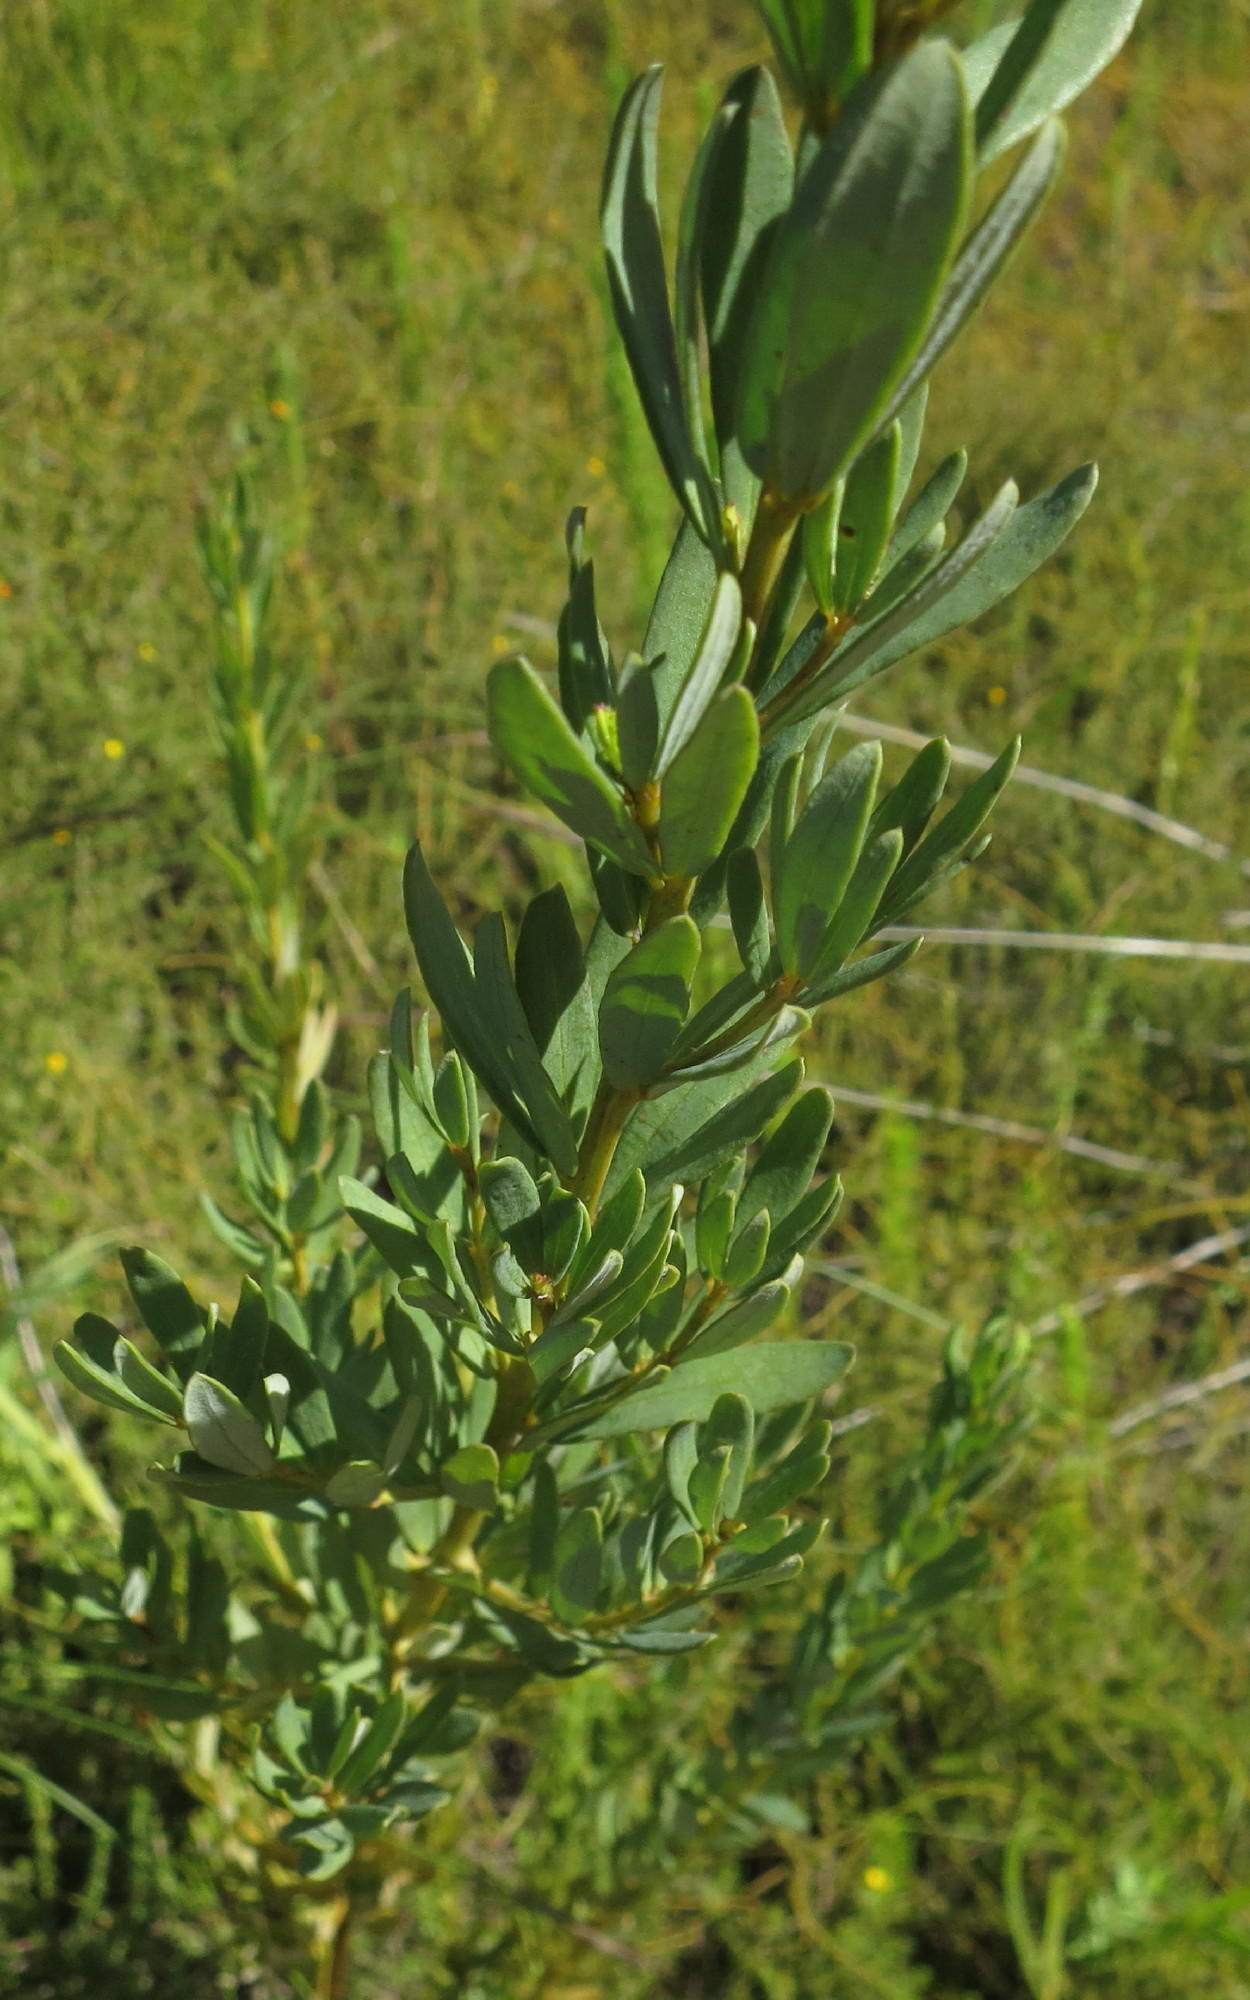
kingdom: Plantae
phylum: Tracheophyta
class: Magnoliopsida
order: Fabales
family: Fabaceae
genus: Cyclopia
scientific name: Cyclopia subternata
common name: Honeybush tea
